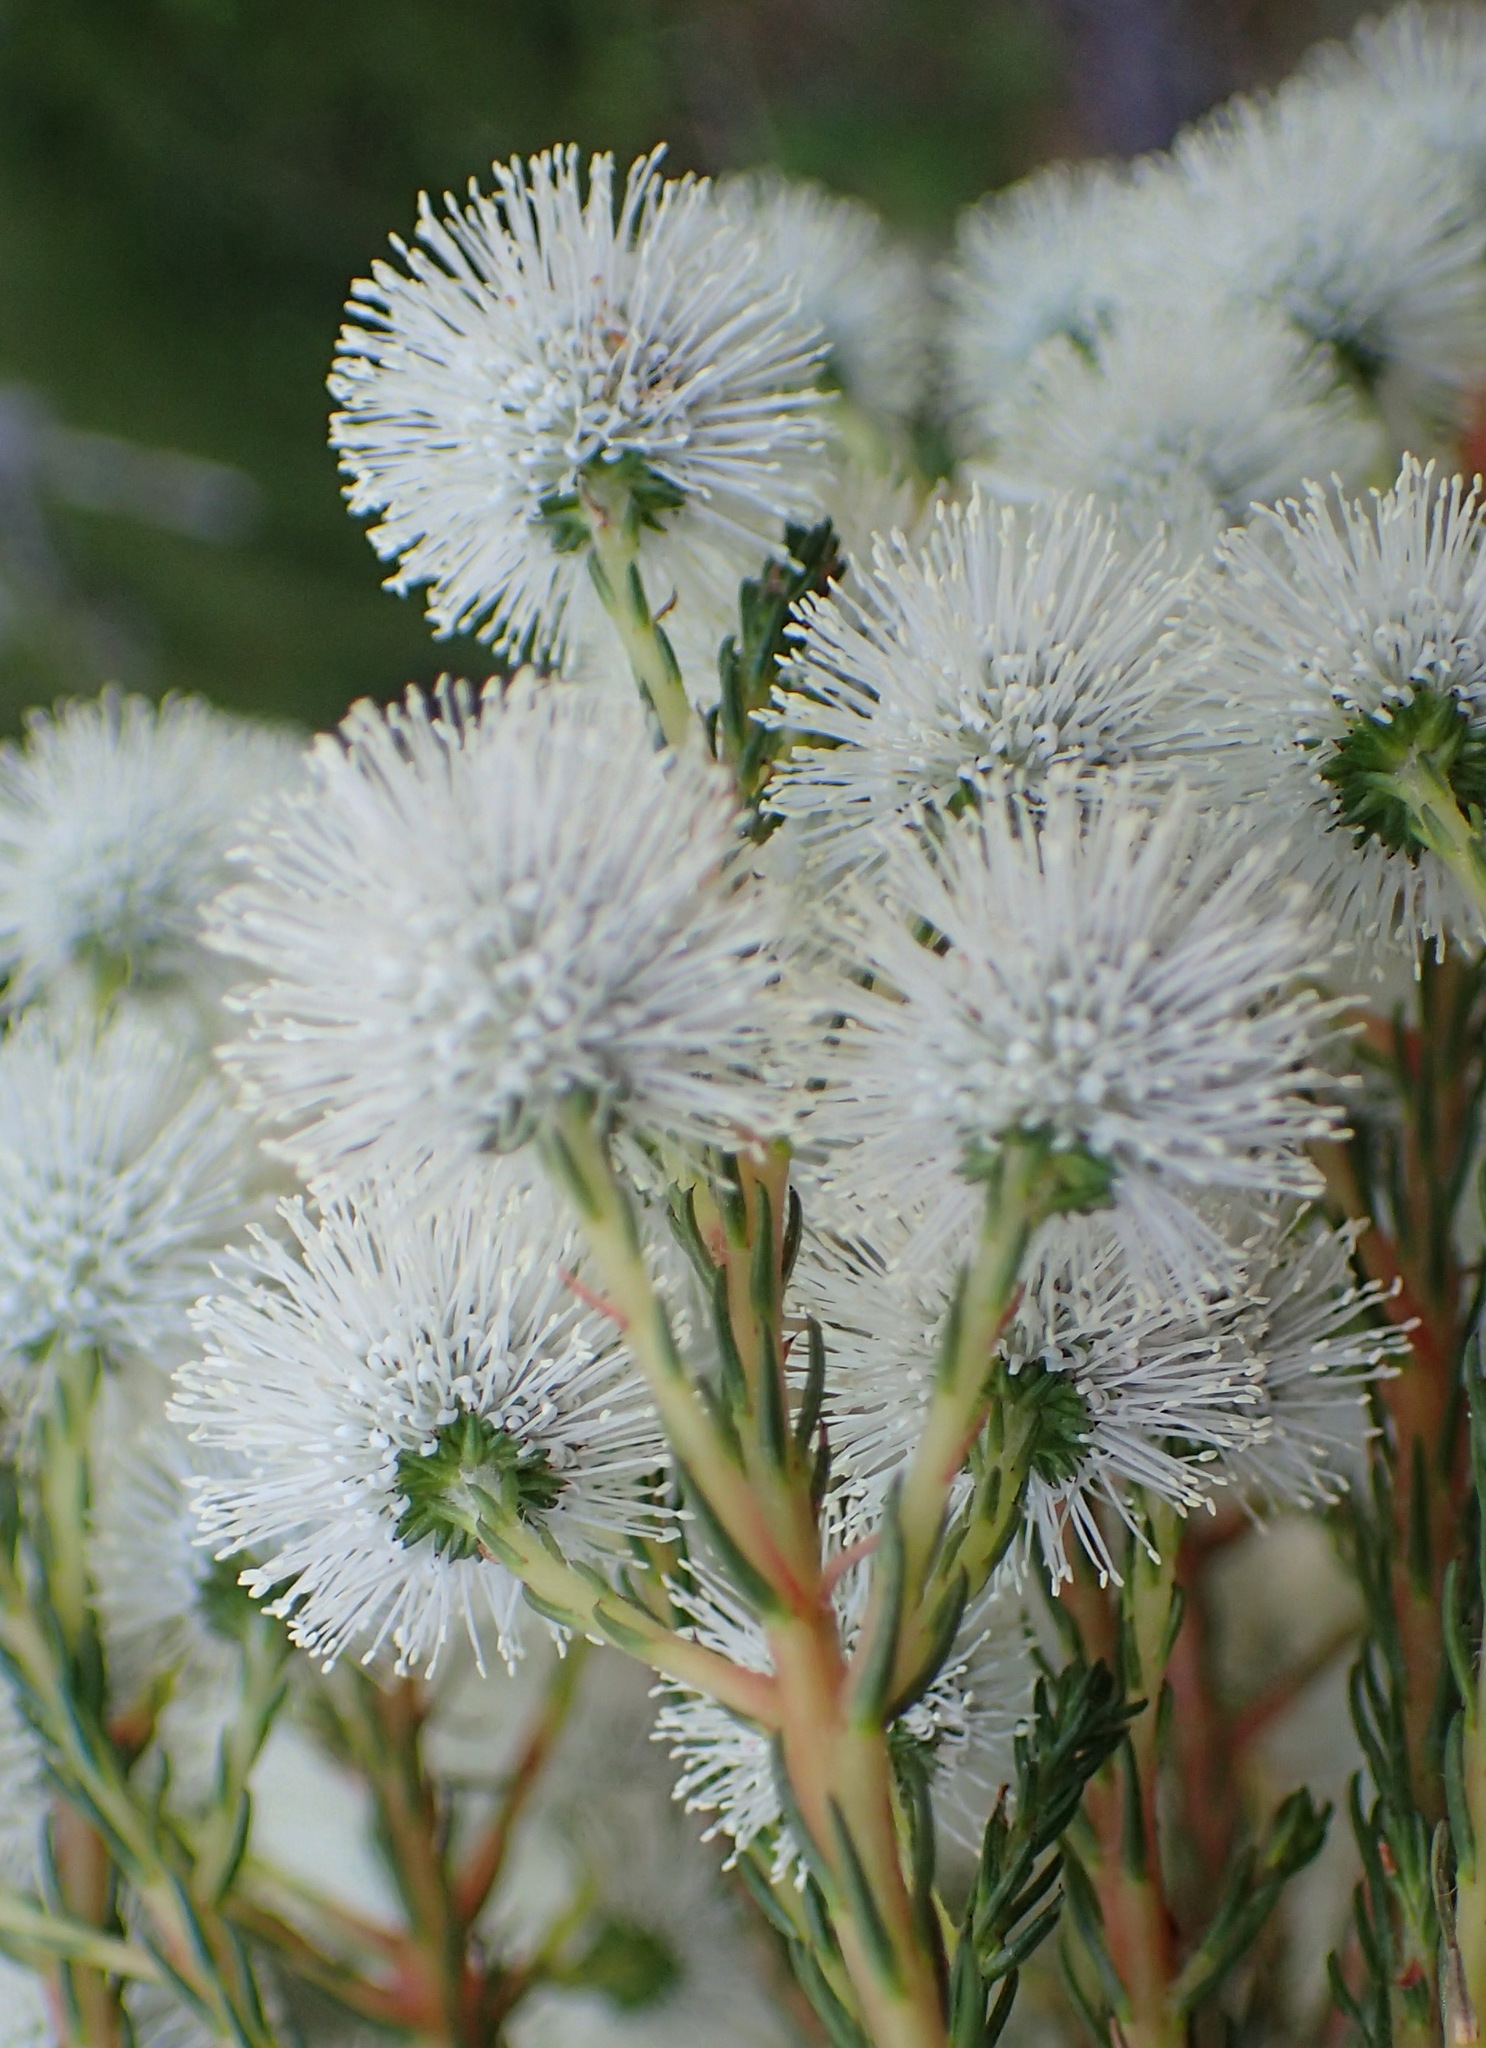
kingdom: Plantae
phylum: Tracheophyta
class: Magnoliopsida
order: Bruniales
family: Bruniaceae
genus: Berzelia
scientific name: Berzelia intermedia
